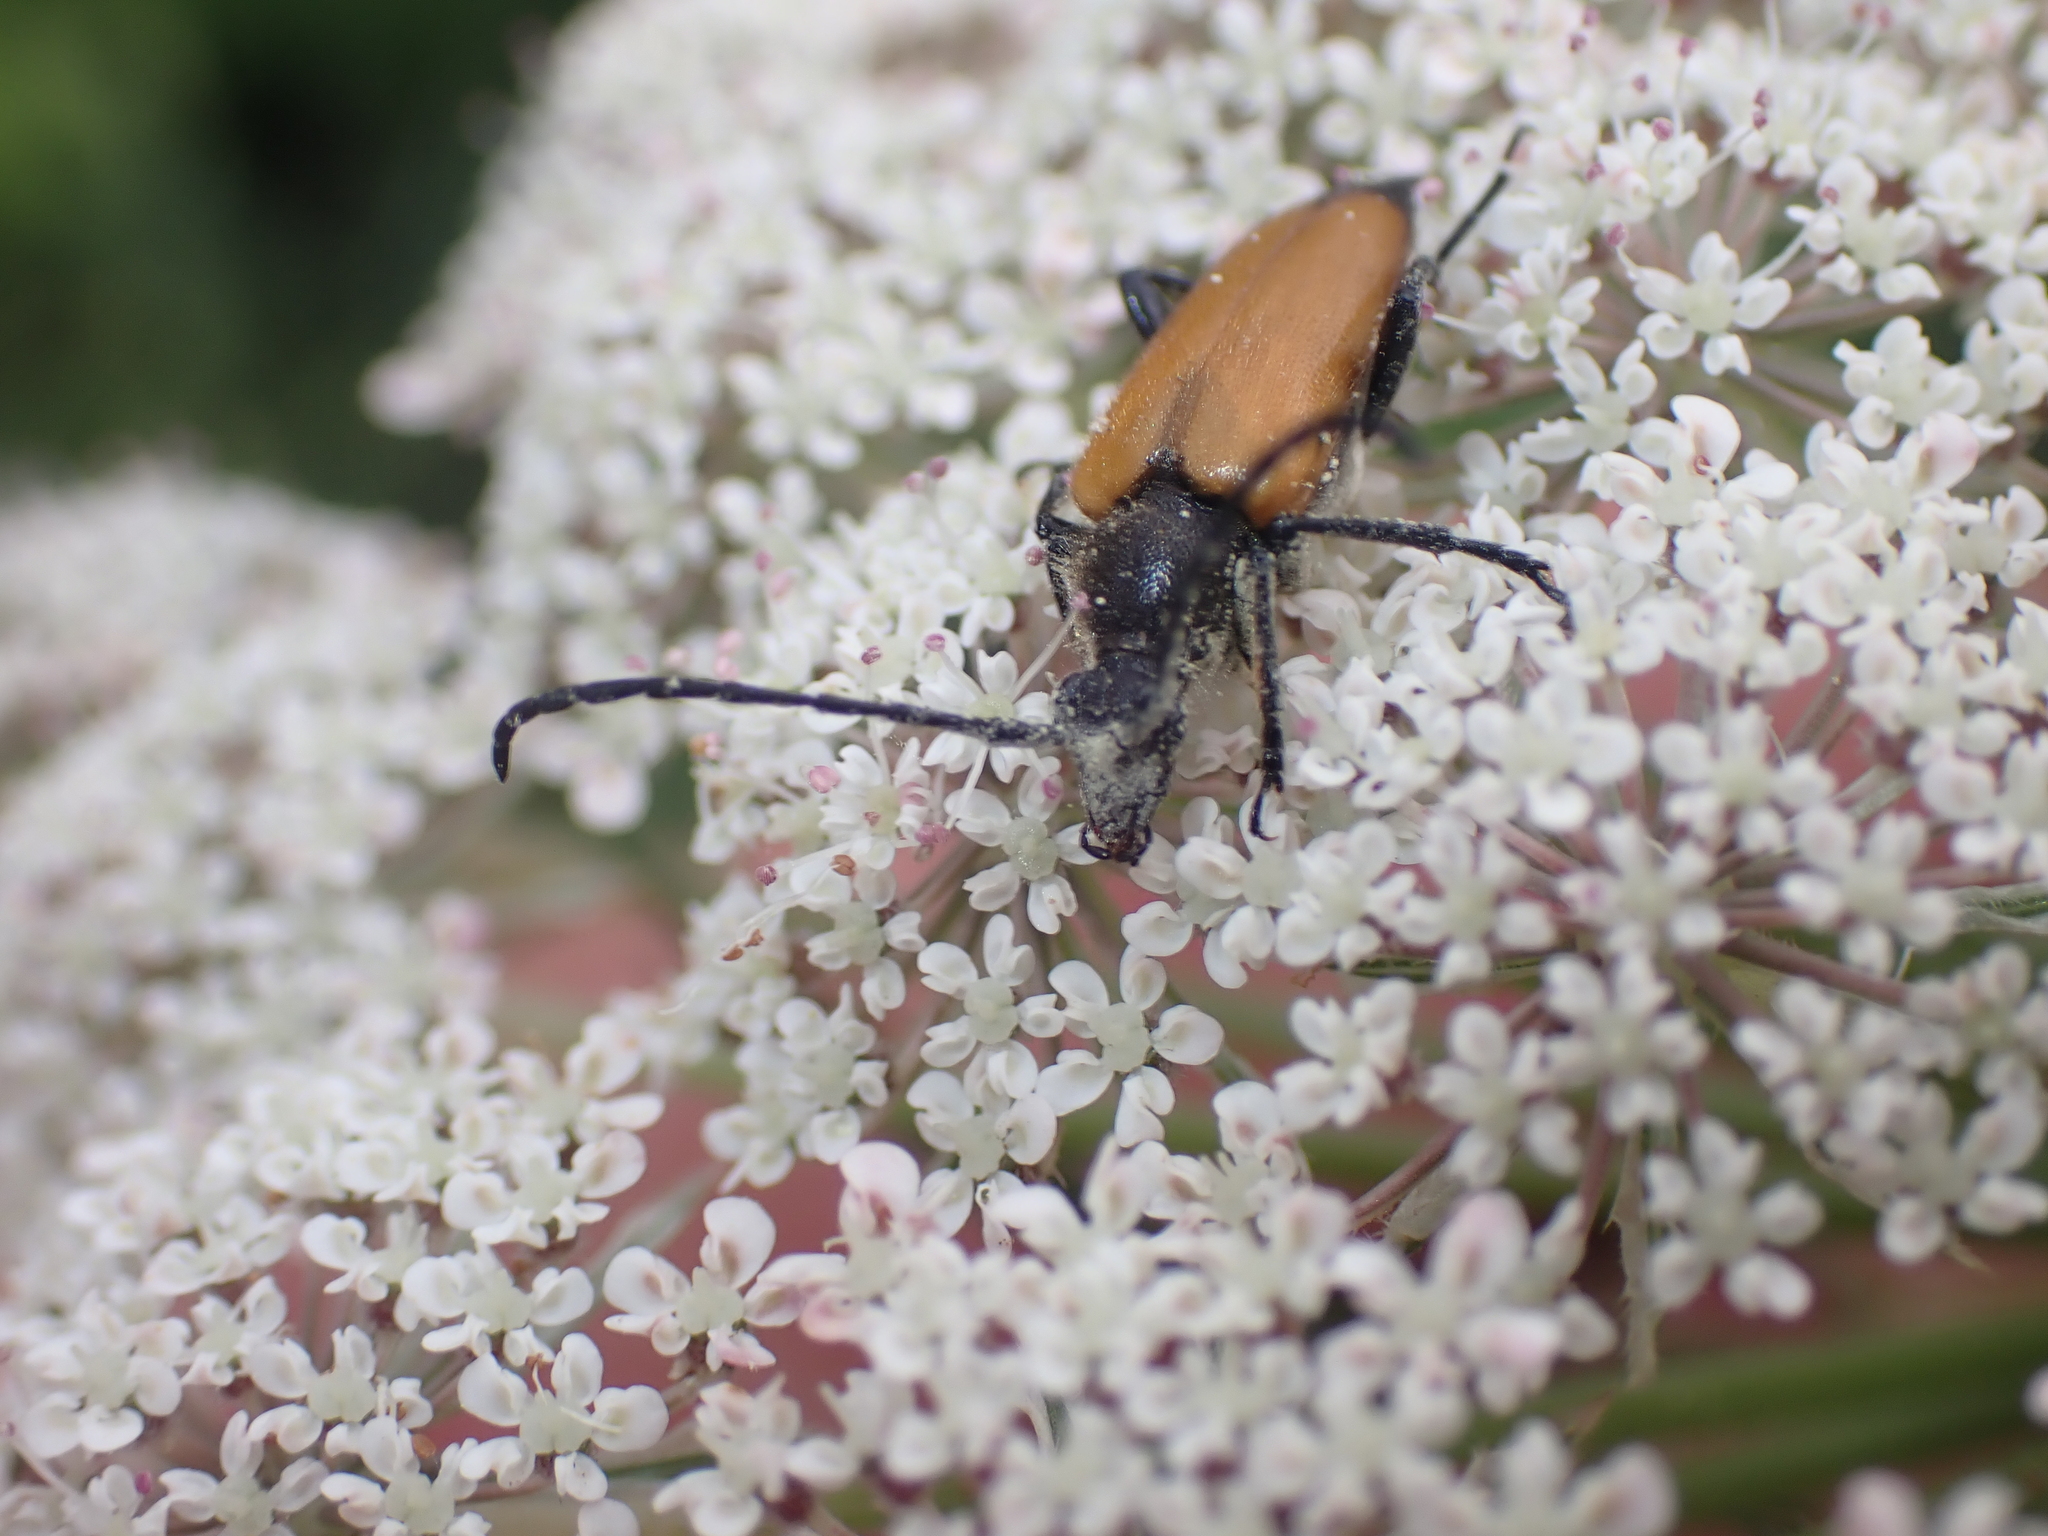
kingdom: Animalia
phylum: Arthropoda
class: Insecta
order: Coleoptera
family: Cerambycidae
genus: Paracorymbia
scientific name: Paracorymbia fulva
